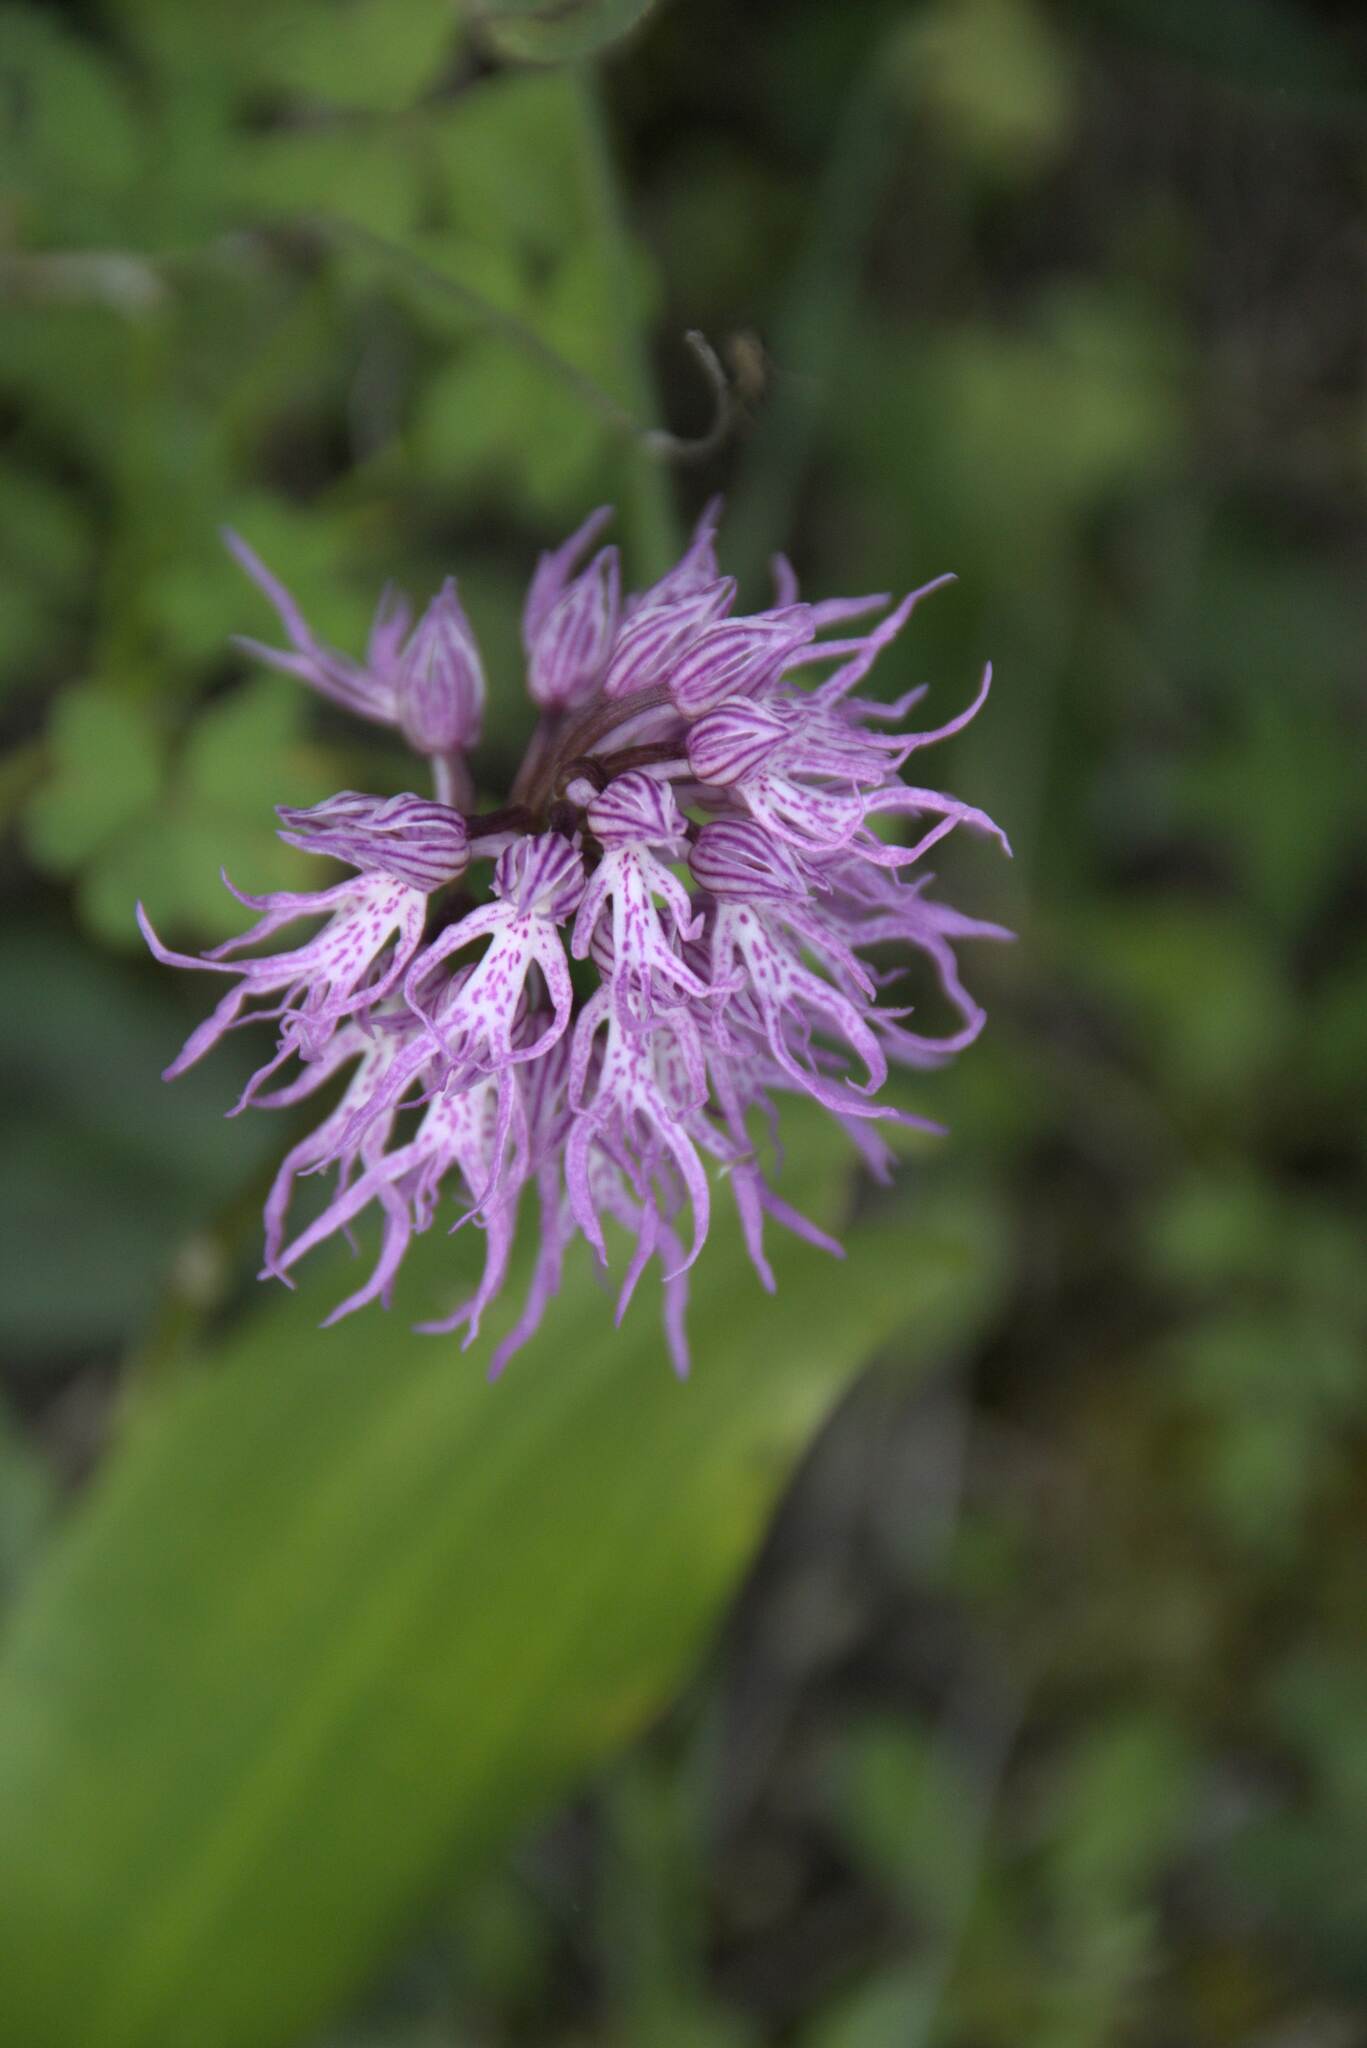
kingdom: Plantae
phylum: Tracheophyta
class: Liliopsida
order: Asparagales
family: Orchidaceae
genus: Orchis
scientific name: Orchis italica
